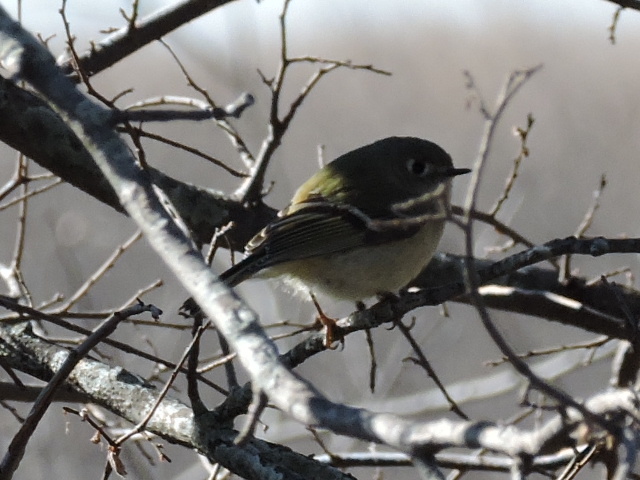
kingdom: Animalia
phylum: Chordata
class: Aves
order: Passeriformes
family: Regulidae
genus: Regulus
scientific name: Regulus calendula
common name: Ruby-crowned kinglet
